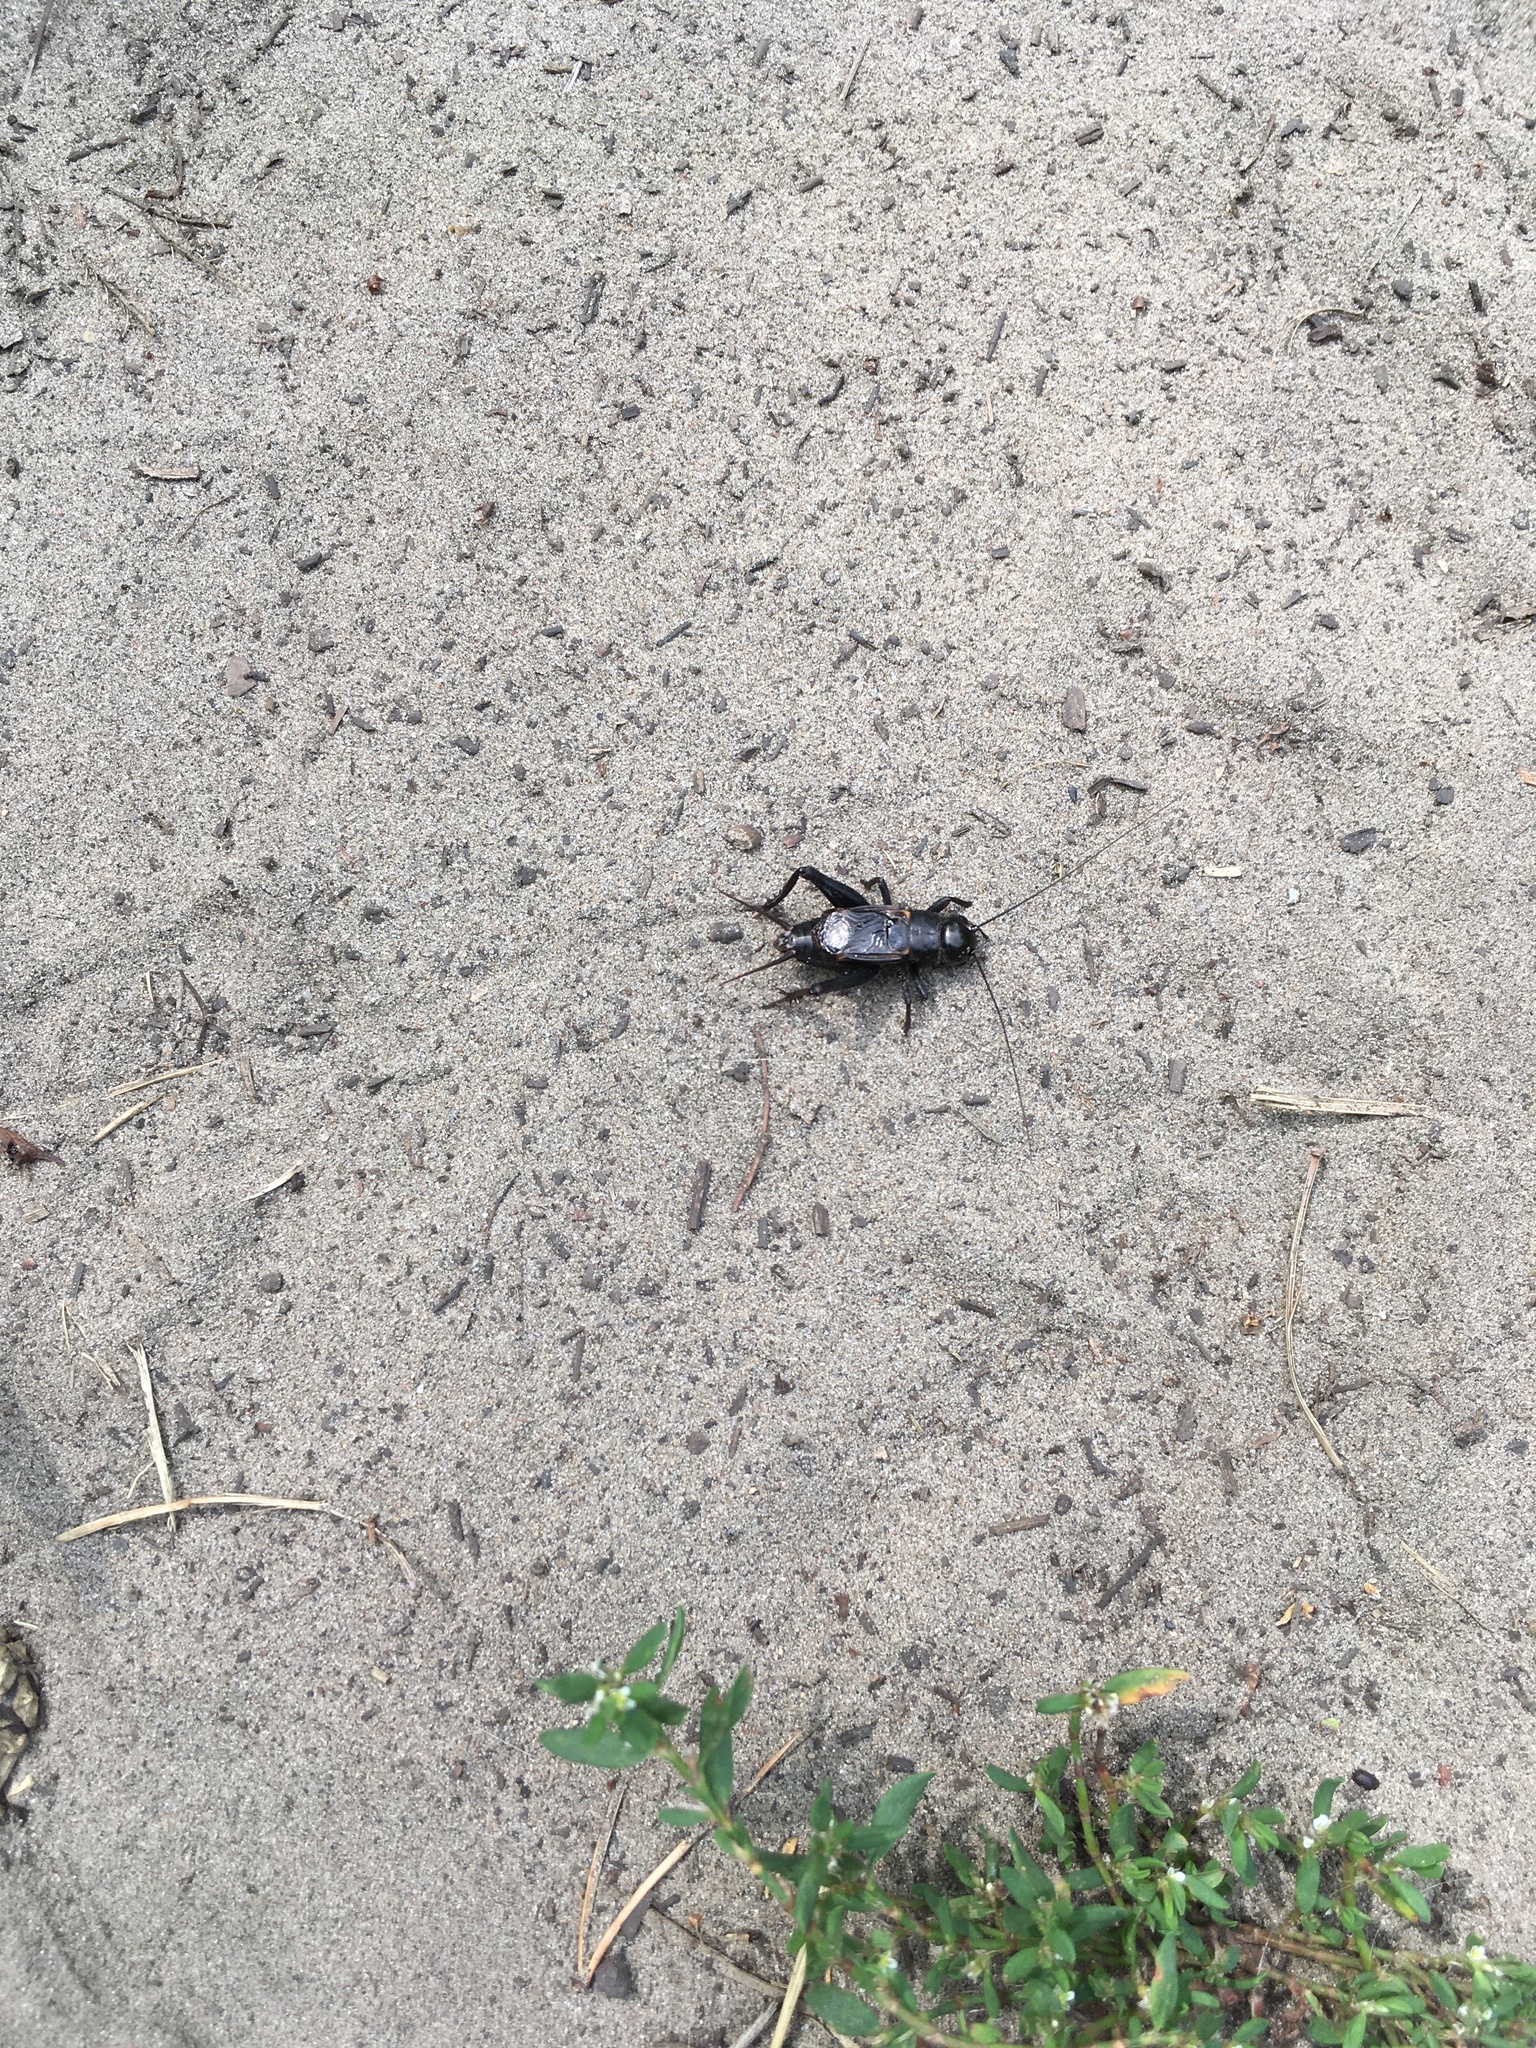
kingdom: Animalia
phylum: Arthropoda
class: Insecta
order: Orthoptera
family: Gryllidae
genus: Gryllus
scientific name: Gryllus pennsylvanicus
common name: Fall field cricket
